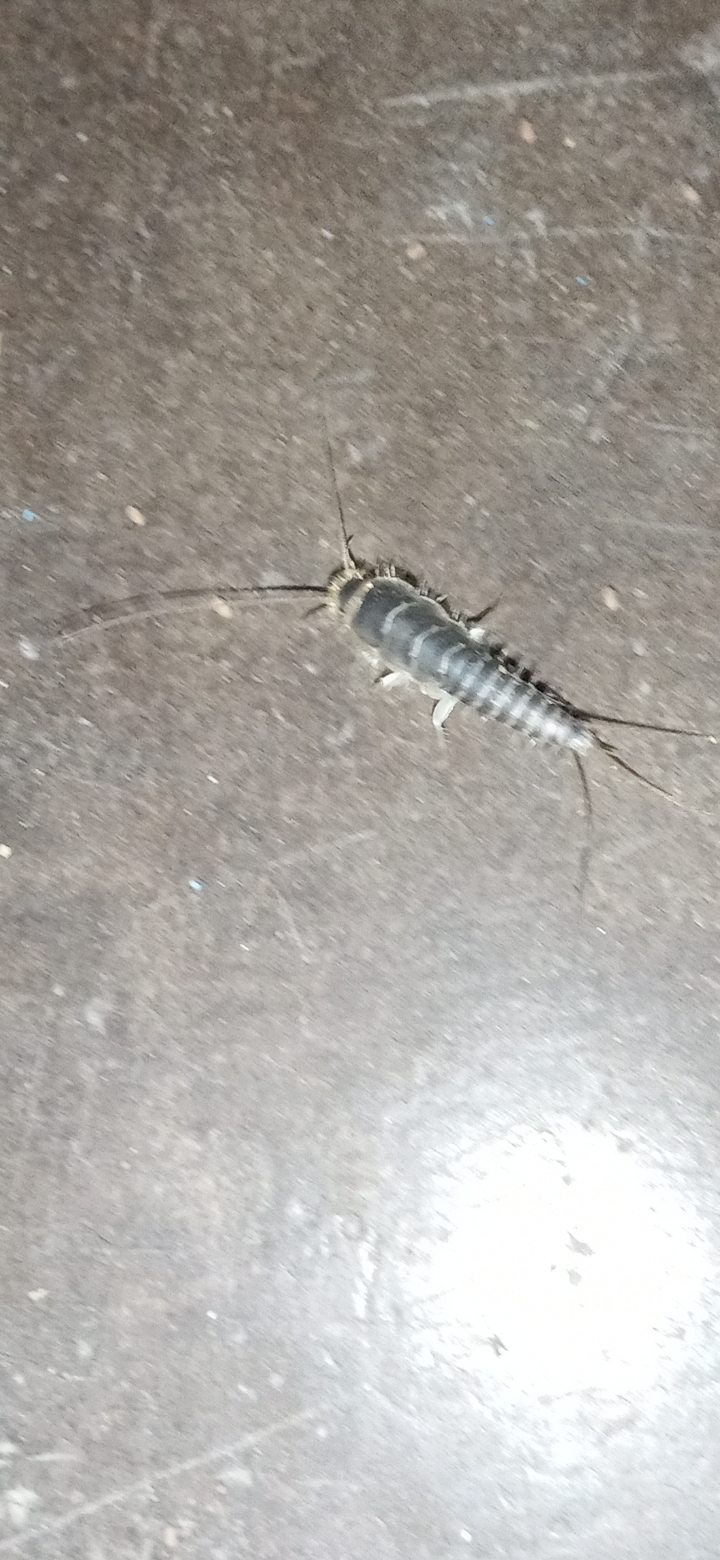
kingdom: Animalia
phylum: Arthropoda
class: Insecta
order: Zygentoma
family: Lepismatidae
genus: Ctenolepisma
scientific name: Ctenolepisma longicaudatum
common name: Silverfish
